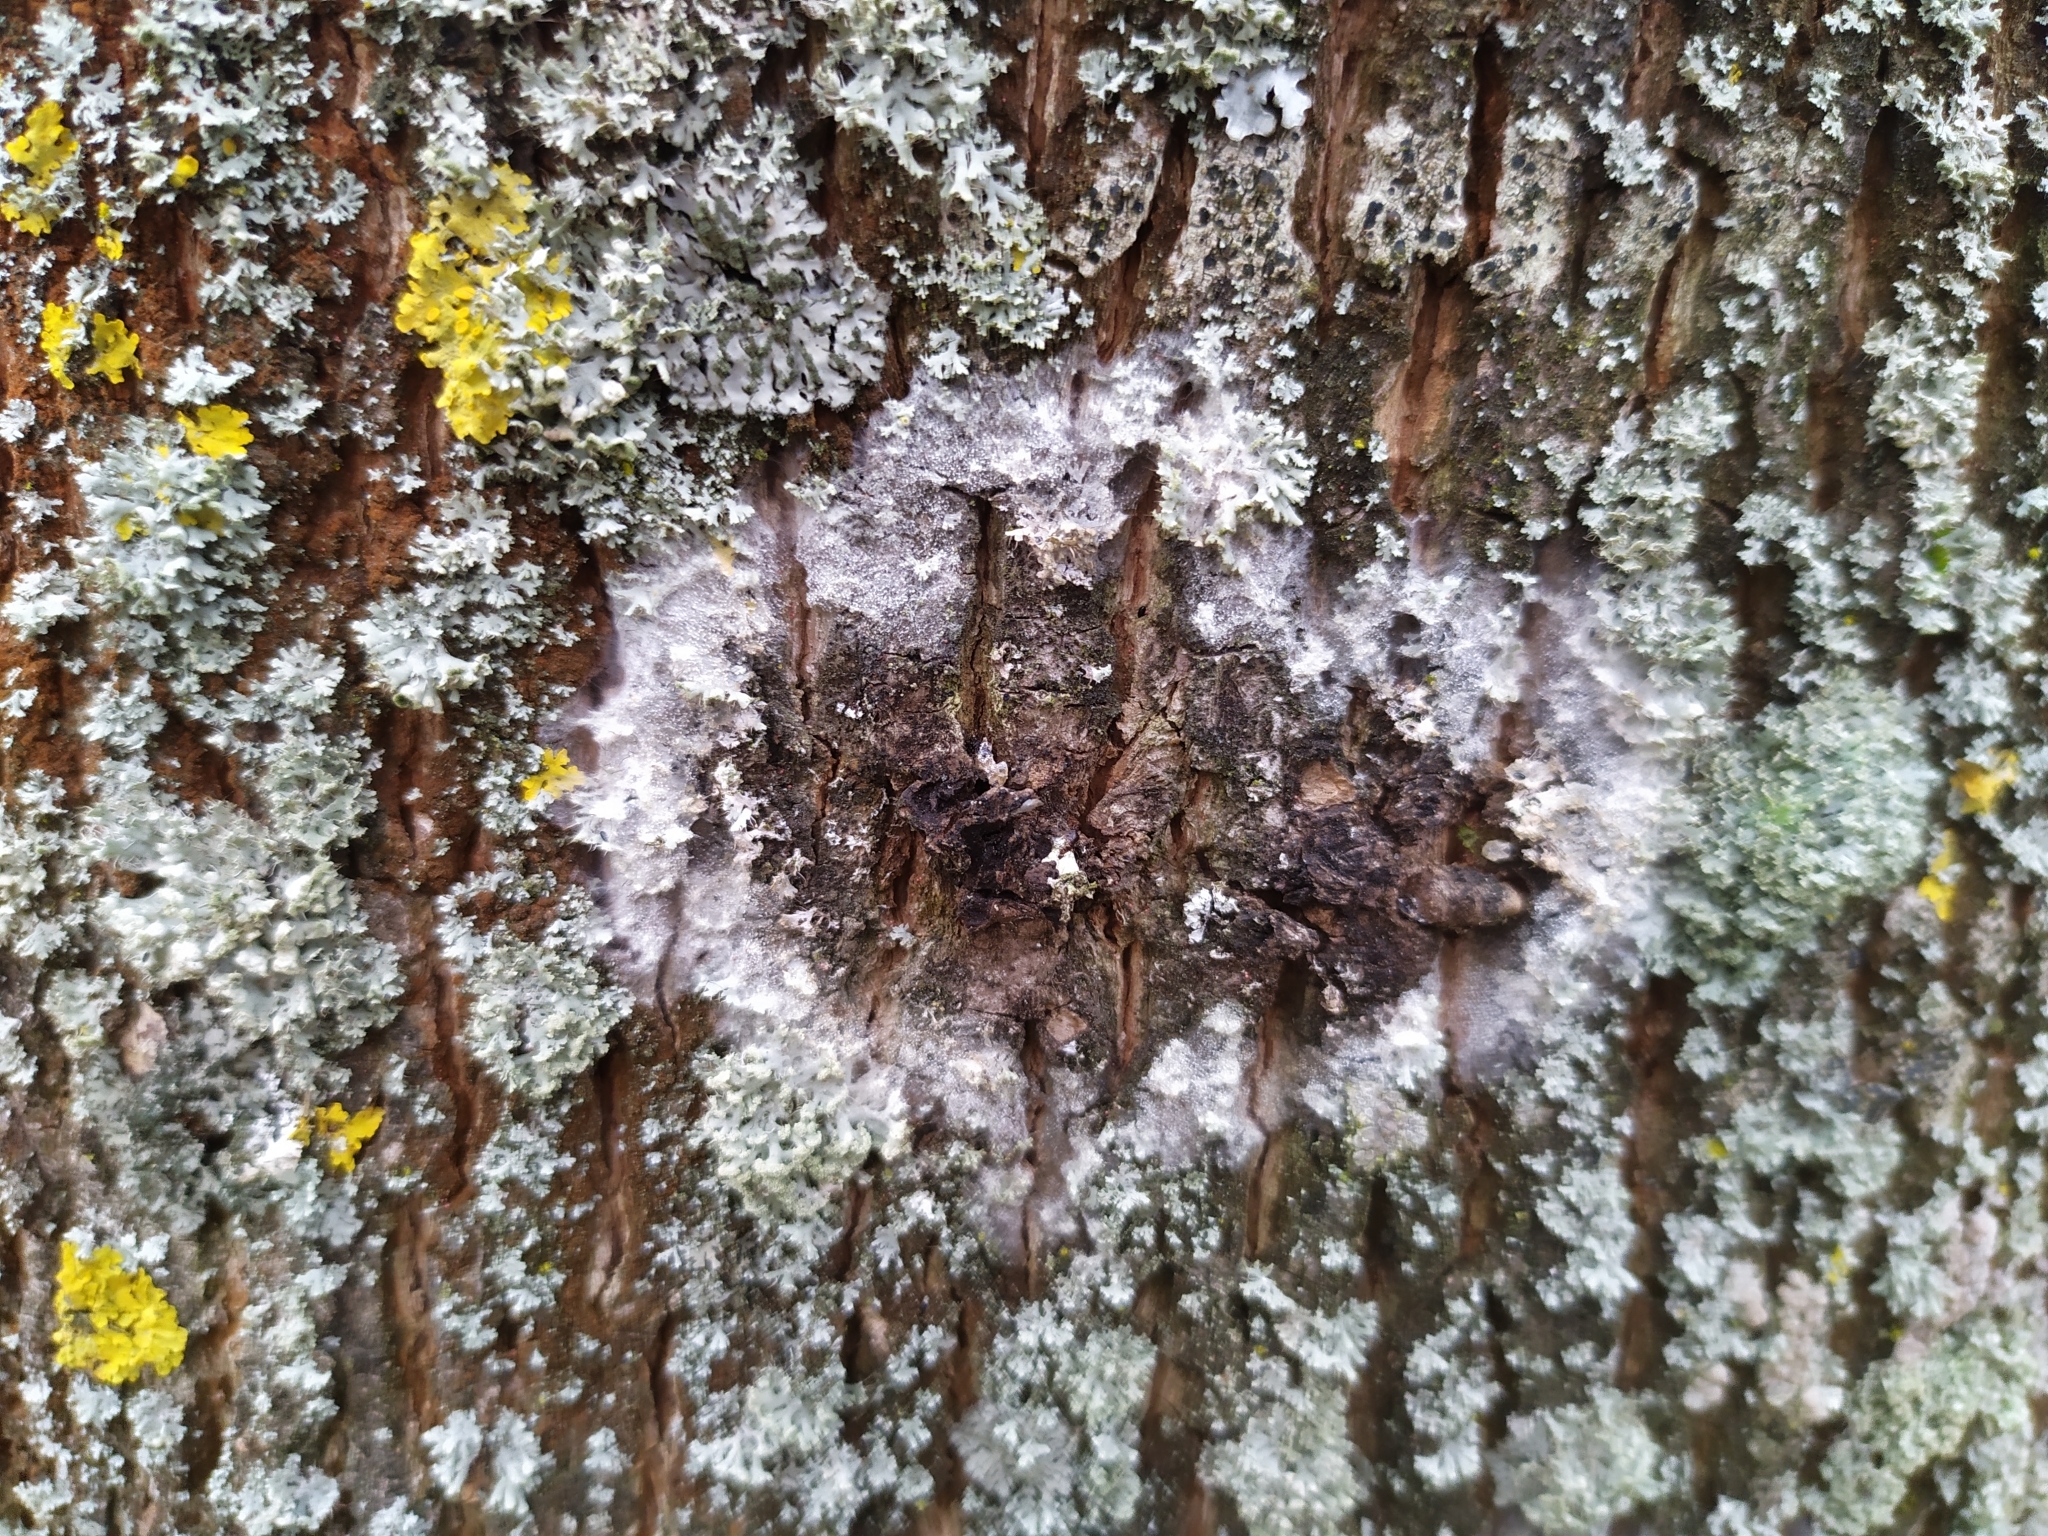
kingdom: Fungi
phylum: Basidiomycota
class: Agaricomycetes
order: Atheliales
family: Atheliaceae
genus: Athelia
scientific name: Athelia arachnoidea
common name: Candelabra duster
